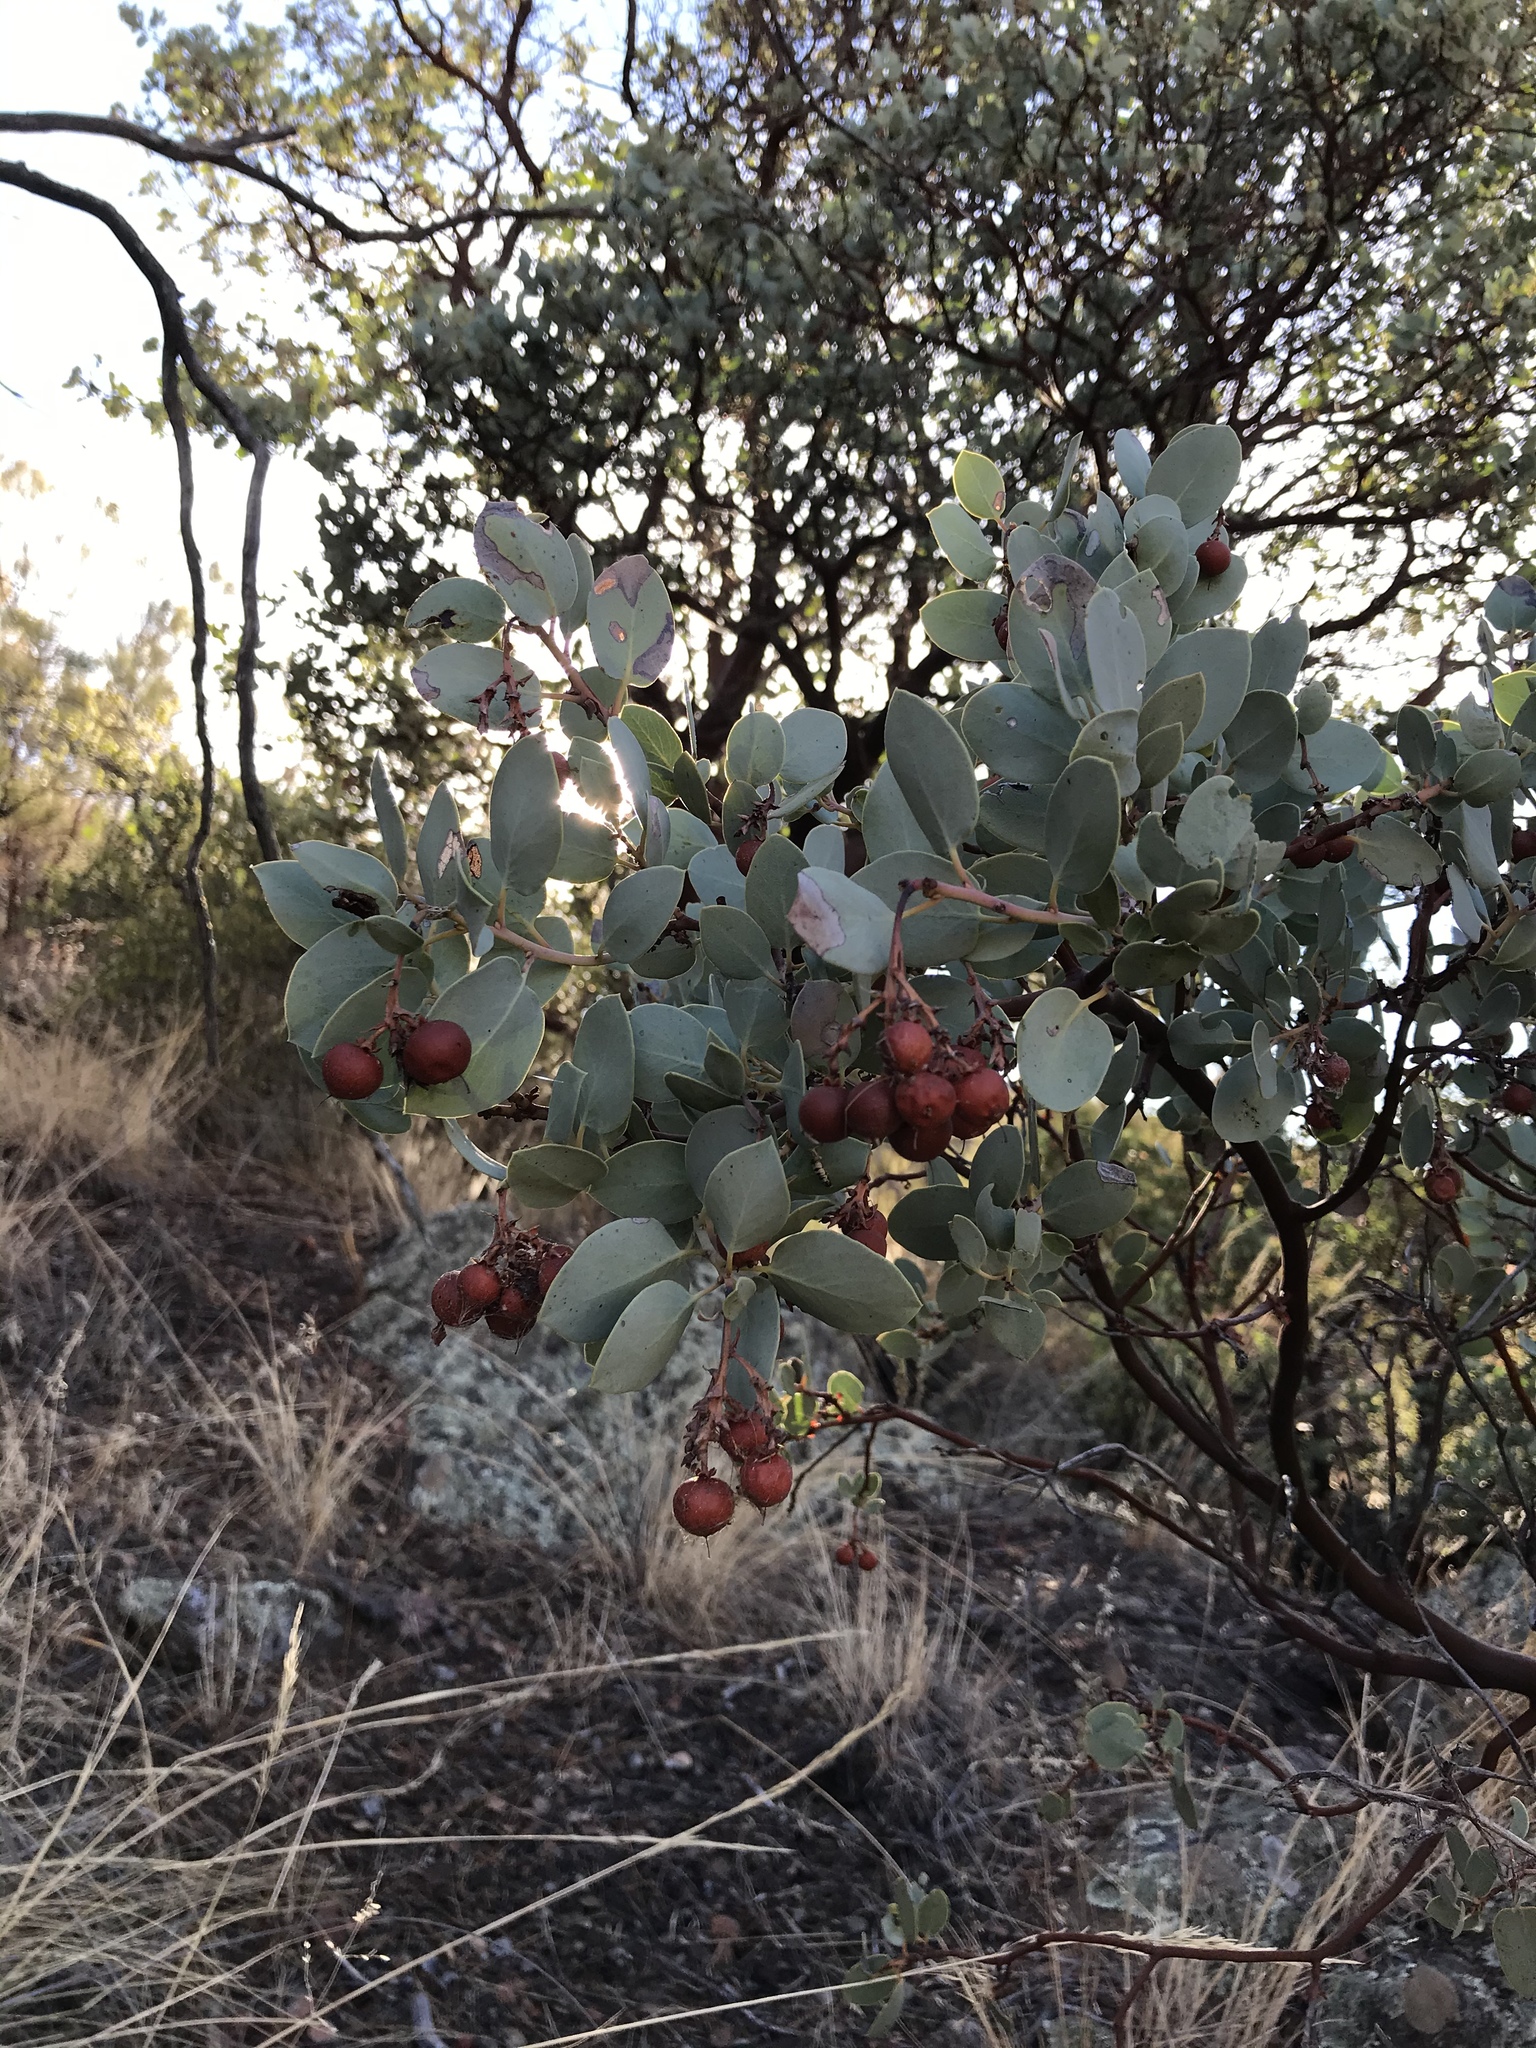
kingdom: Plantae
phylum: Tracheophyta
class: Magnoliopsida
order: Ericales
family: Ericaceae
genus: Arctostaphylos
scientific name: Arctostaphylos glauca
